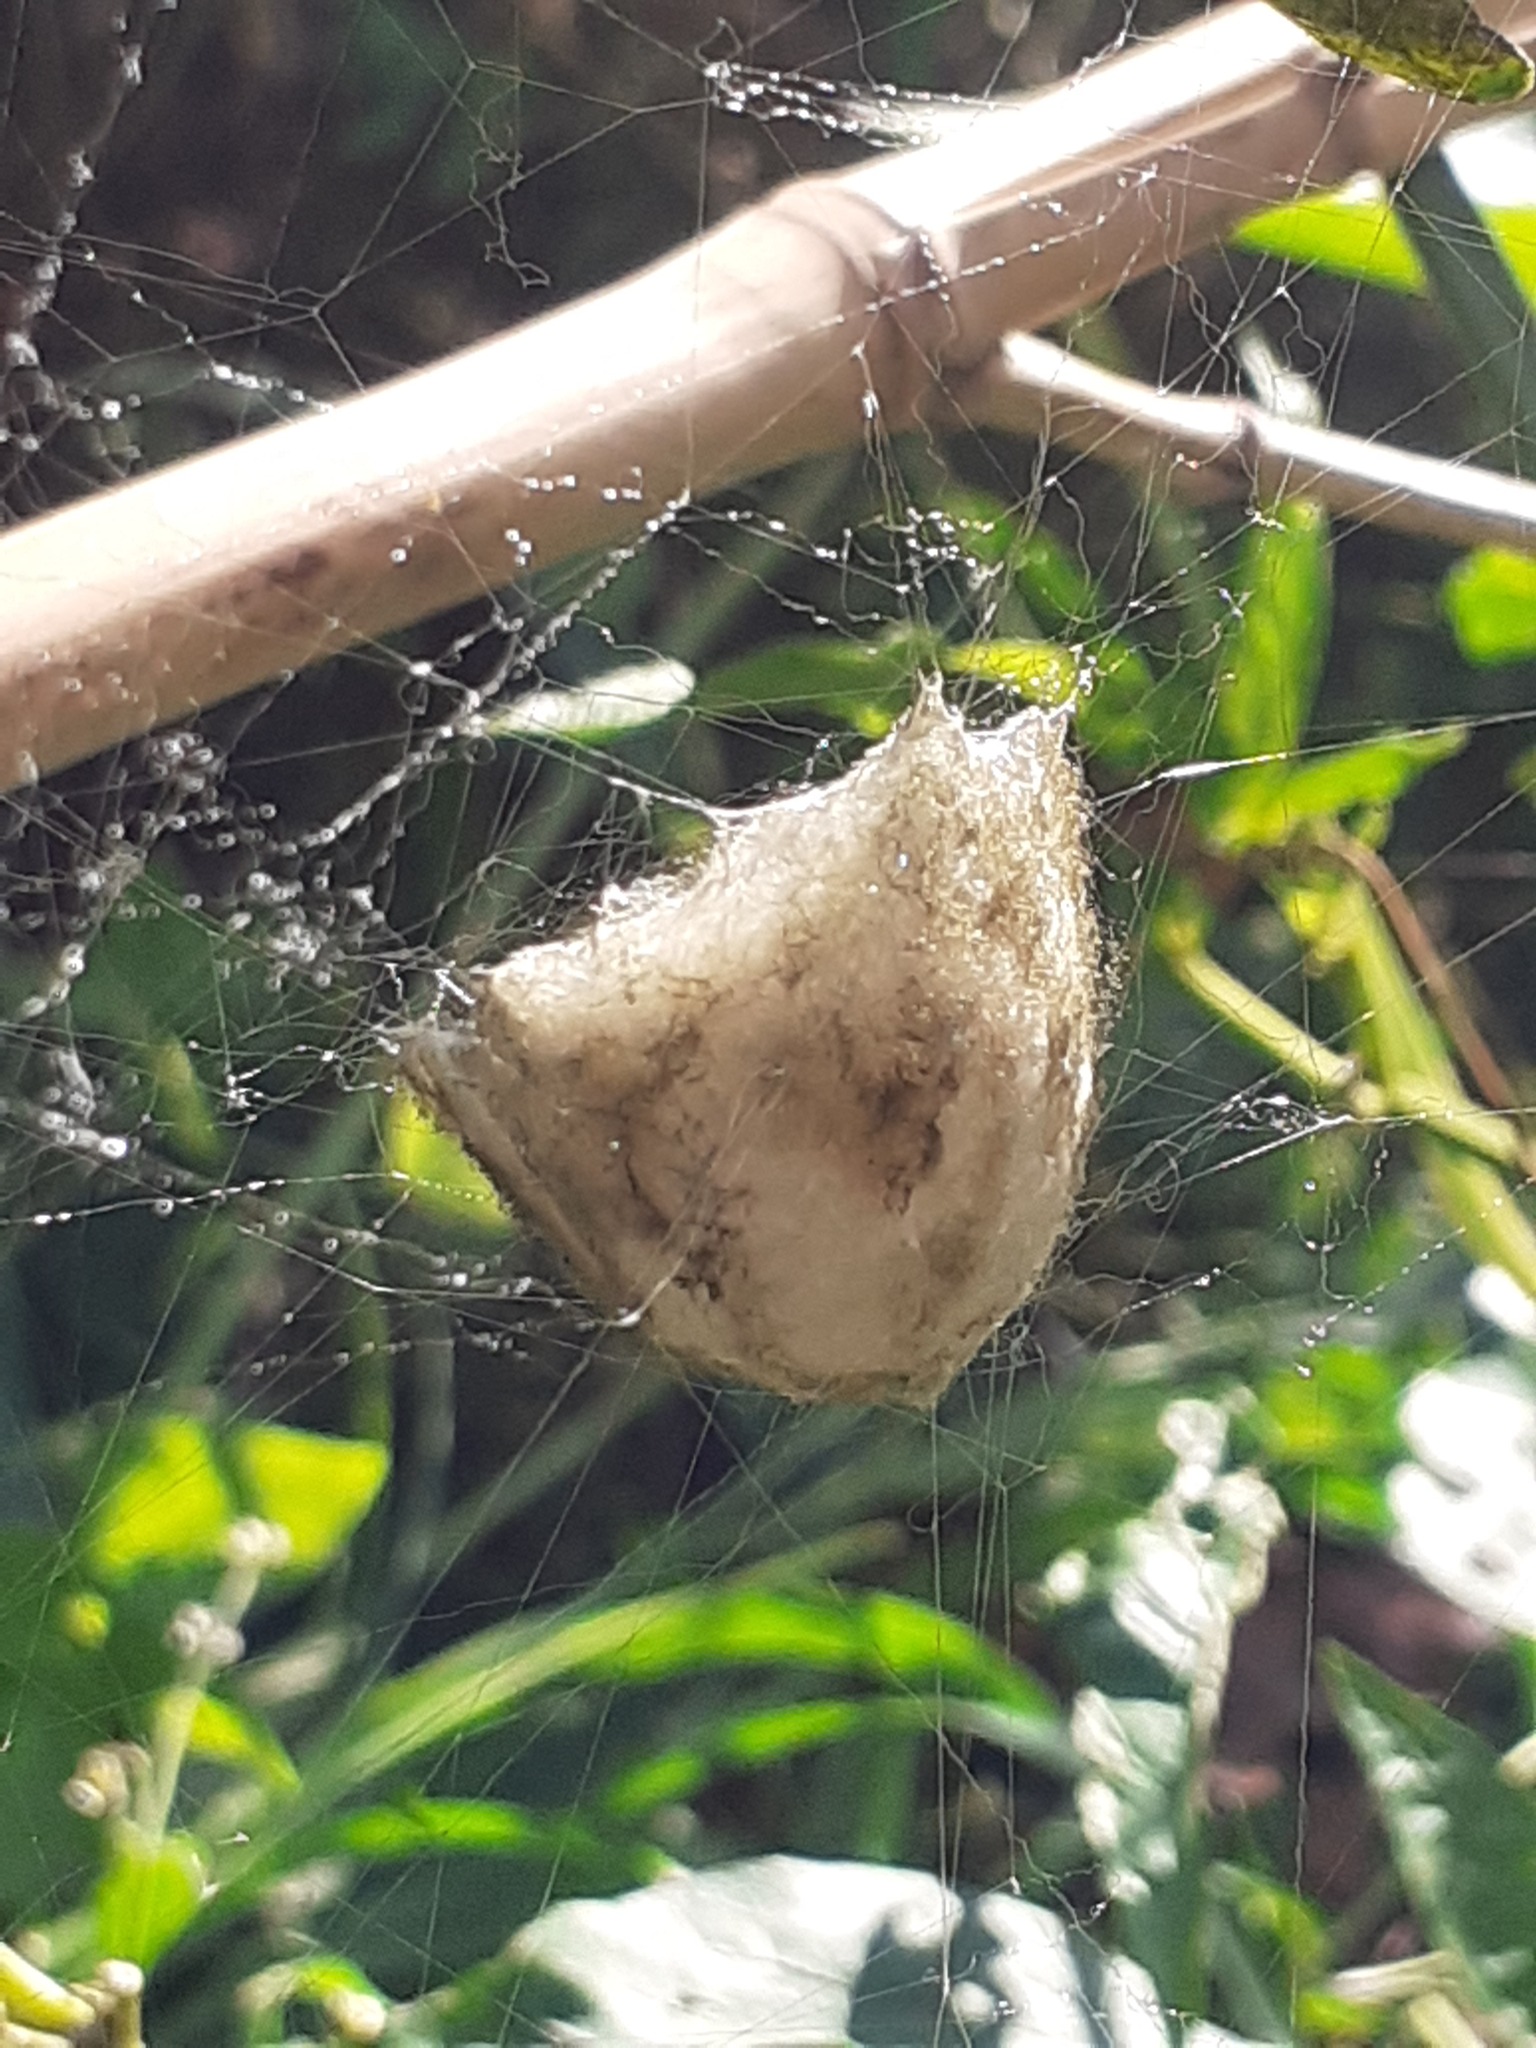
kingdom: Animalia
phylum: Arthropoda
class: Arachnida
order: Araneae
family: Araneidae
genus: Argiope
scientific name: Argiope trifasciata
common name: Banded garden spider
